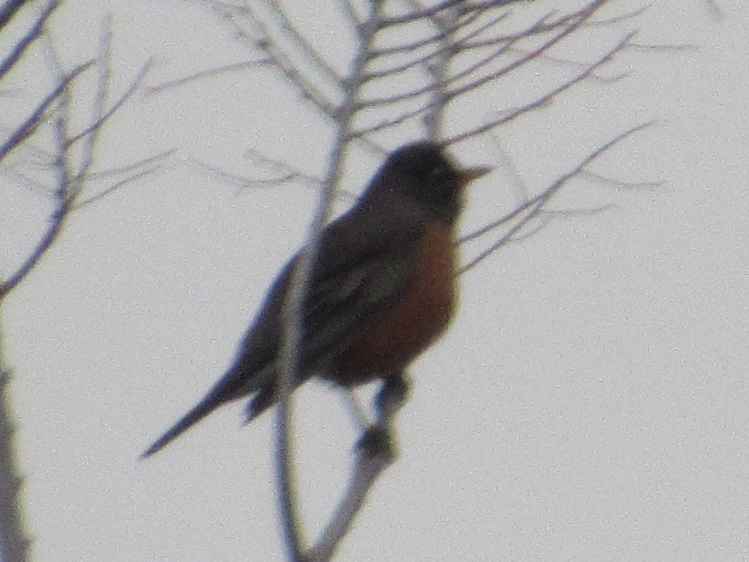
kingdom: Animalia
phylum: Chordata
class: Aves
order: Passeriformes
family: Turdidae
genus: Turdus
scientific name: Turdus migratorius
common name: American robin
